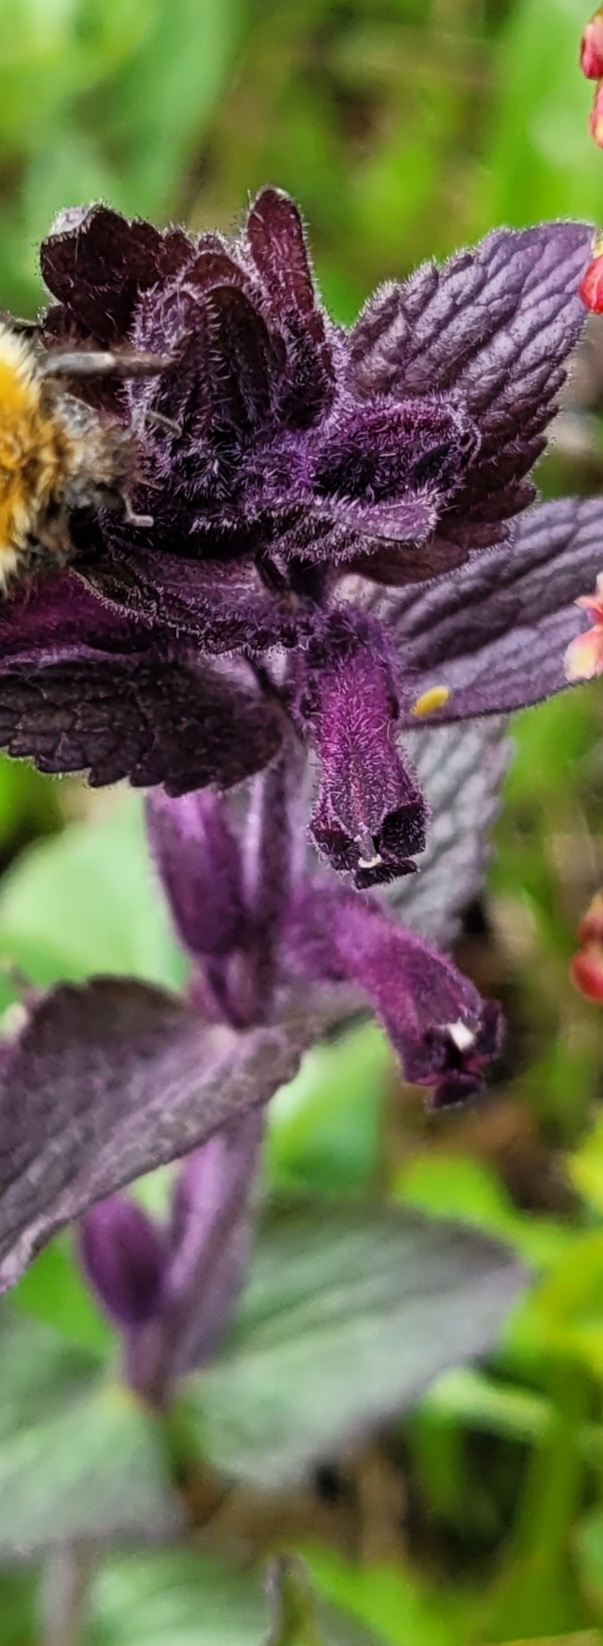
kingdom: Plantae
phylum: Tracheophyta
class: Magnoliopsida
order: Lamiales
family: Orobanchaceae
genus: Bartsia
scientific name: Bartsia alpina
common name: Alpine bartsia
